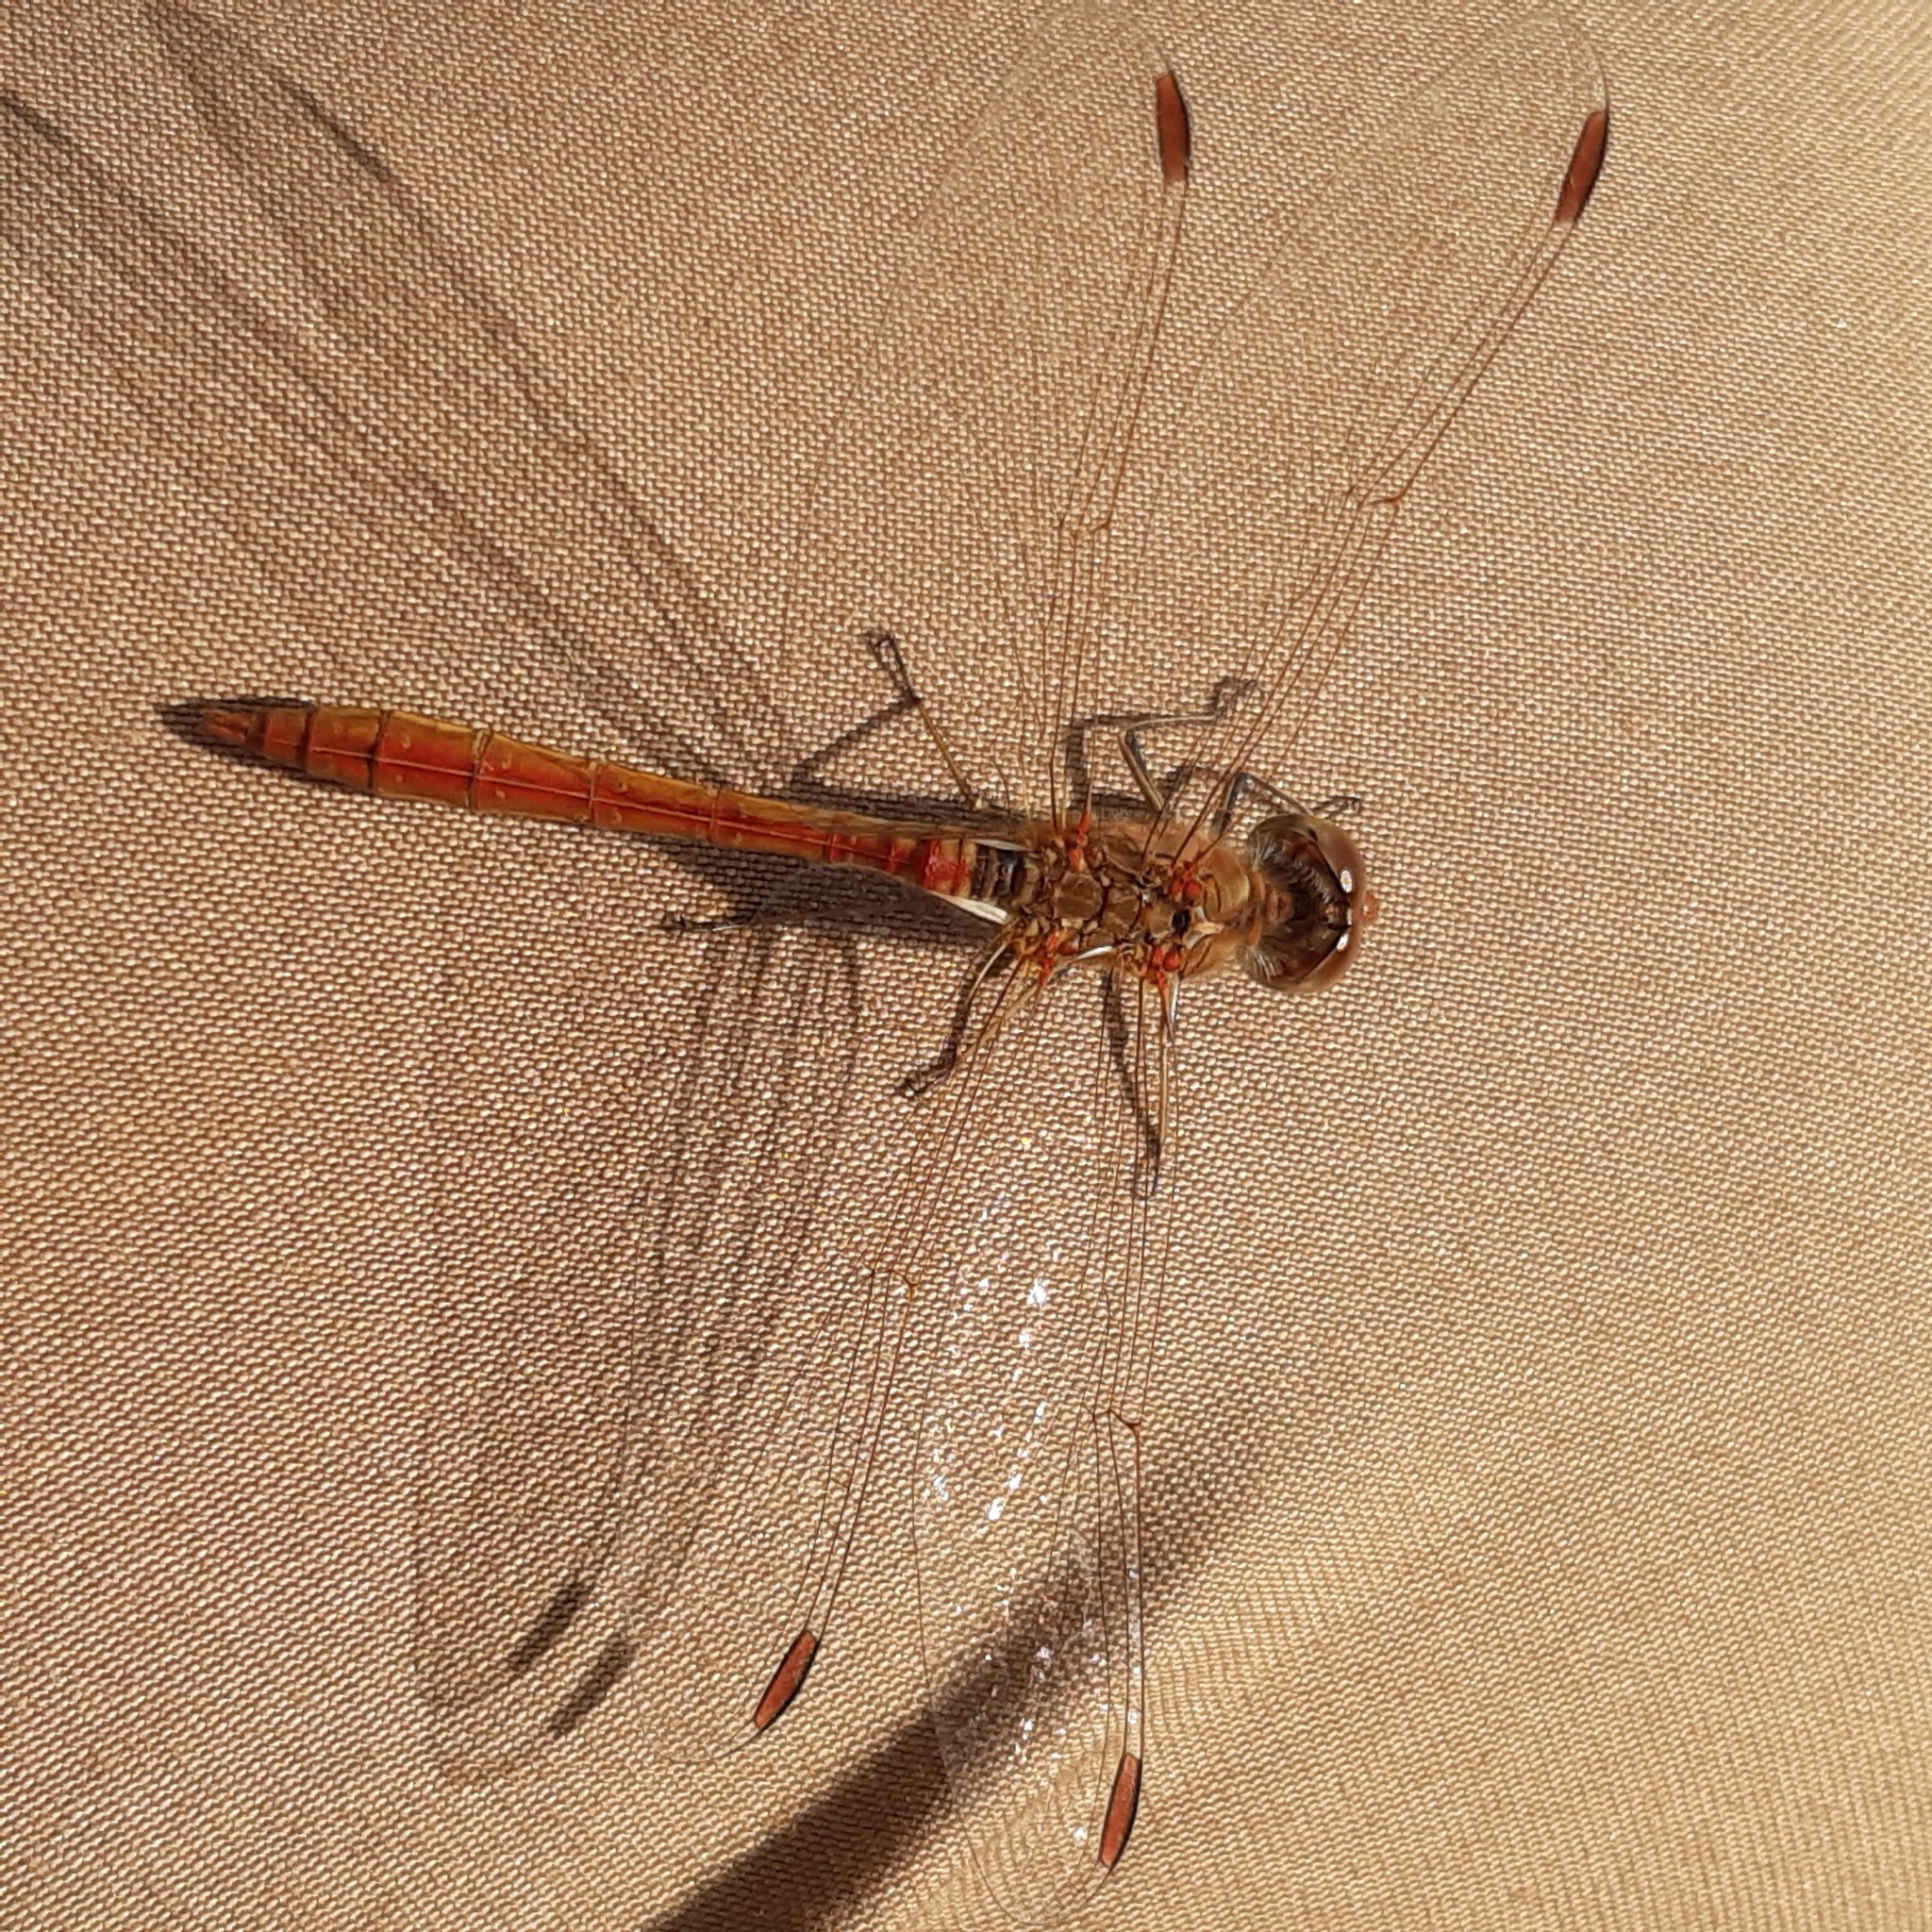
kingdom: Animalia
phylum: Arthropoda
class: Insecta
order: Odonata
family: Libellulidae
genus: Sympetrum
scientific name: Sympetrum meridionale
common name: Southern darter
